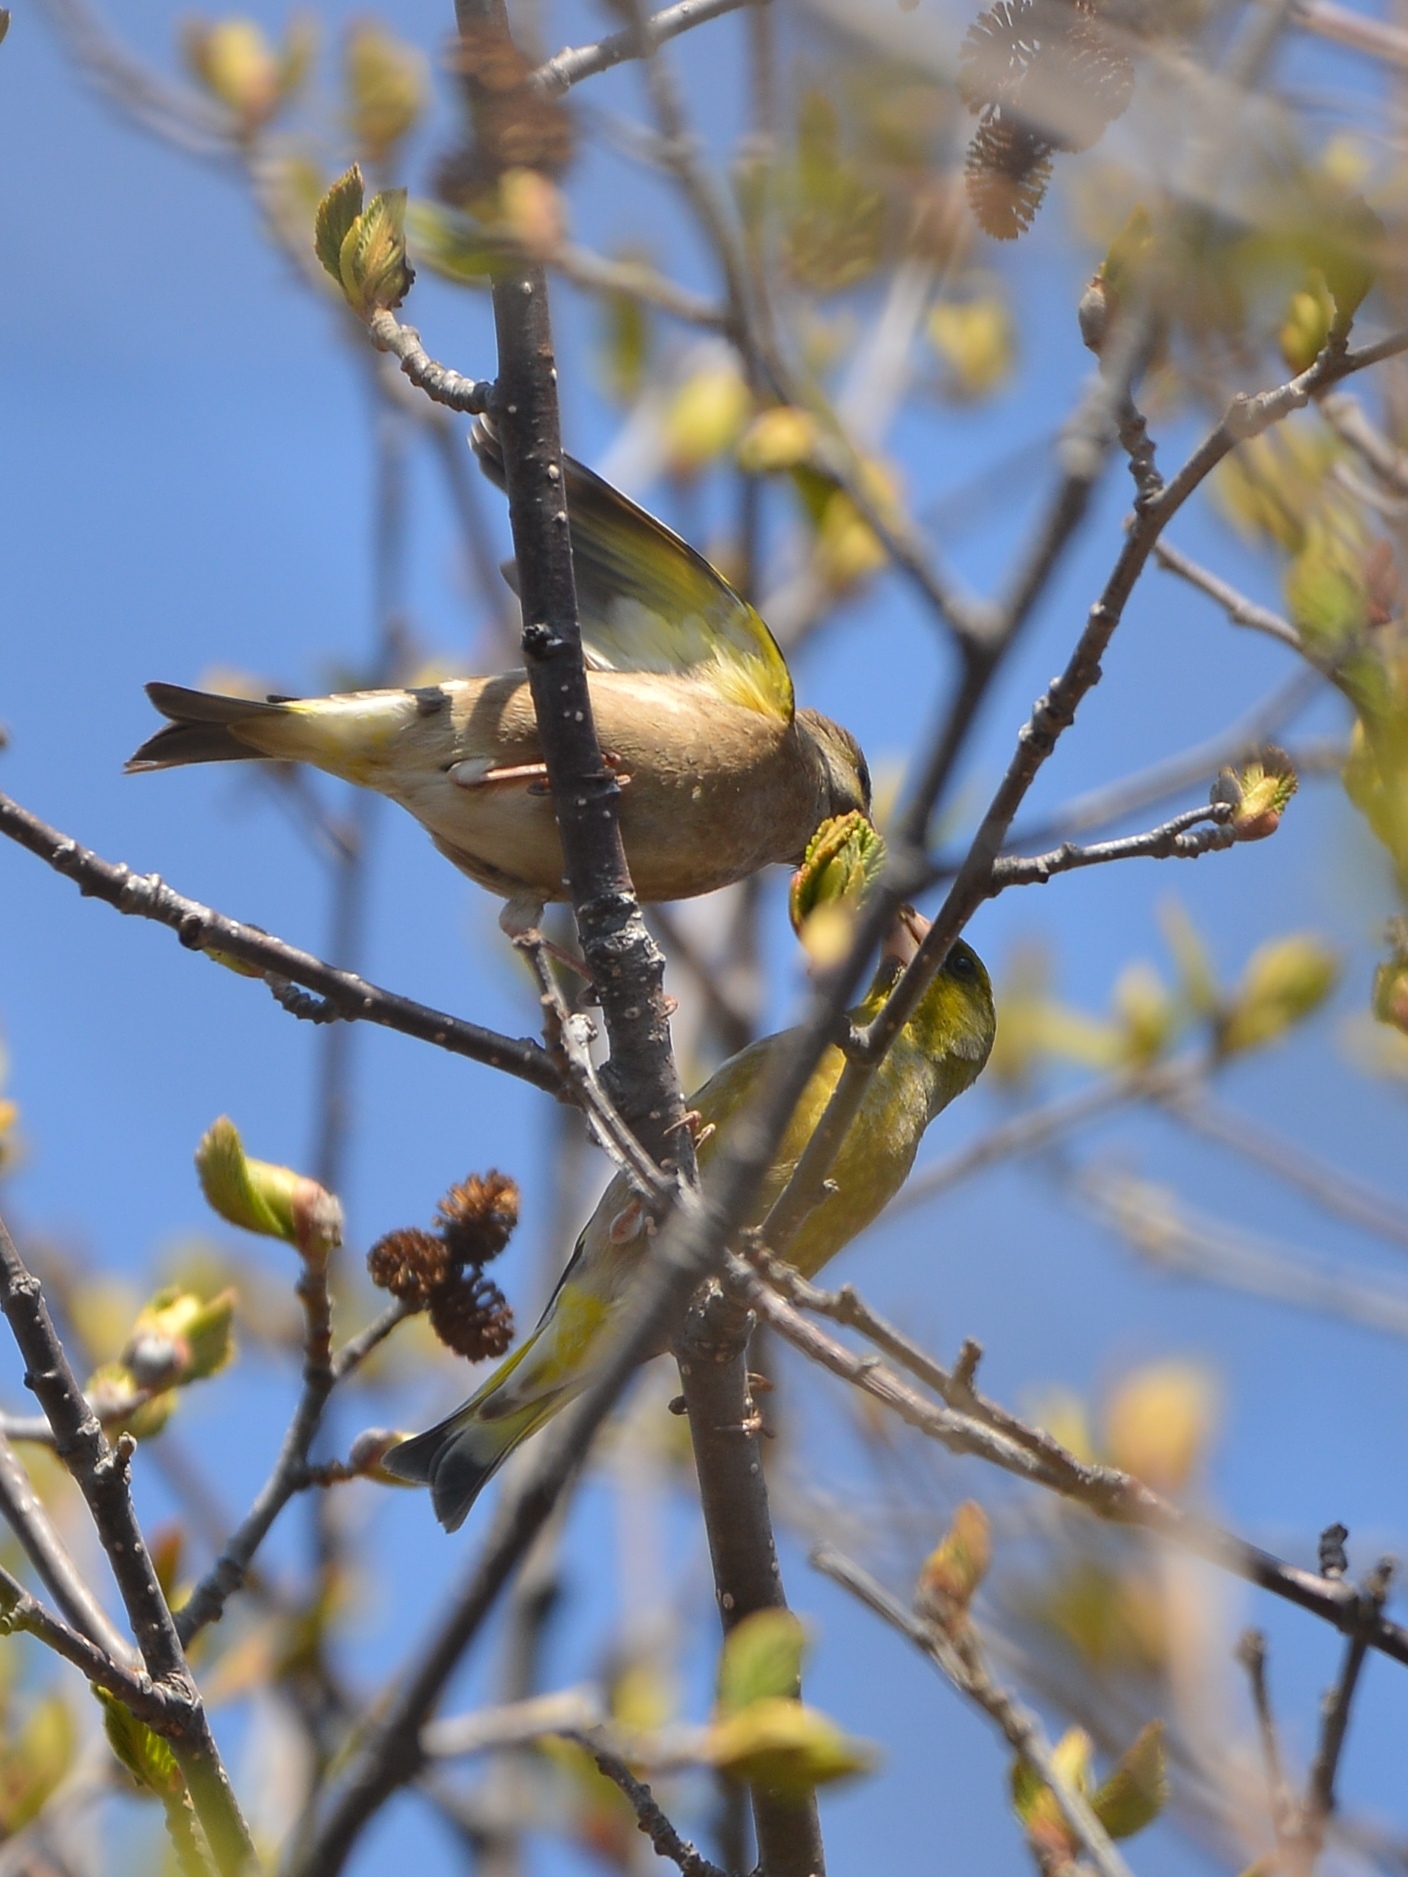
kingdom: Plantae
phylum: Tracheophyta
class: Liliopsida
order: Poales
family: Poaceae
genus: Chloris
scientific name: Chloris sinica
